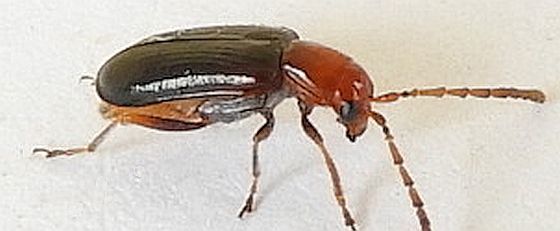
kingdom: Animalia
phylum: Arthropoda
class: Insecta
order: Coleoptera
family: Chrysomelidae
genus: Luperosoma
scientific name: Luperosoma subsulcatum
